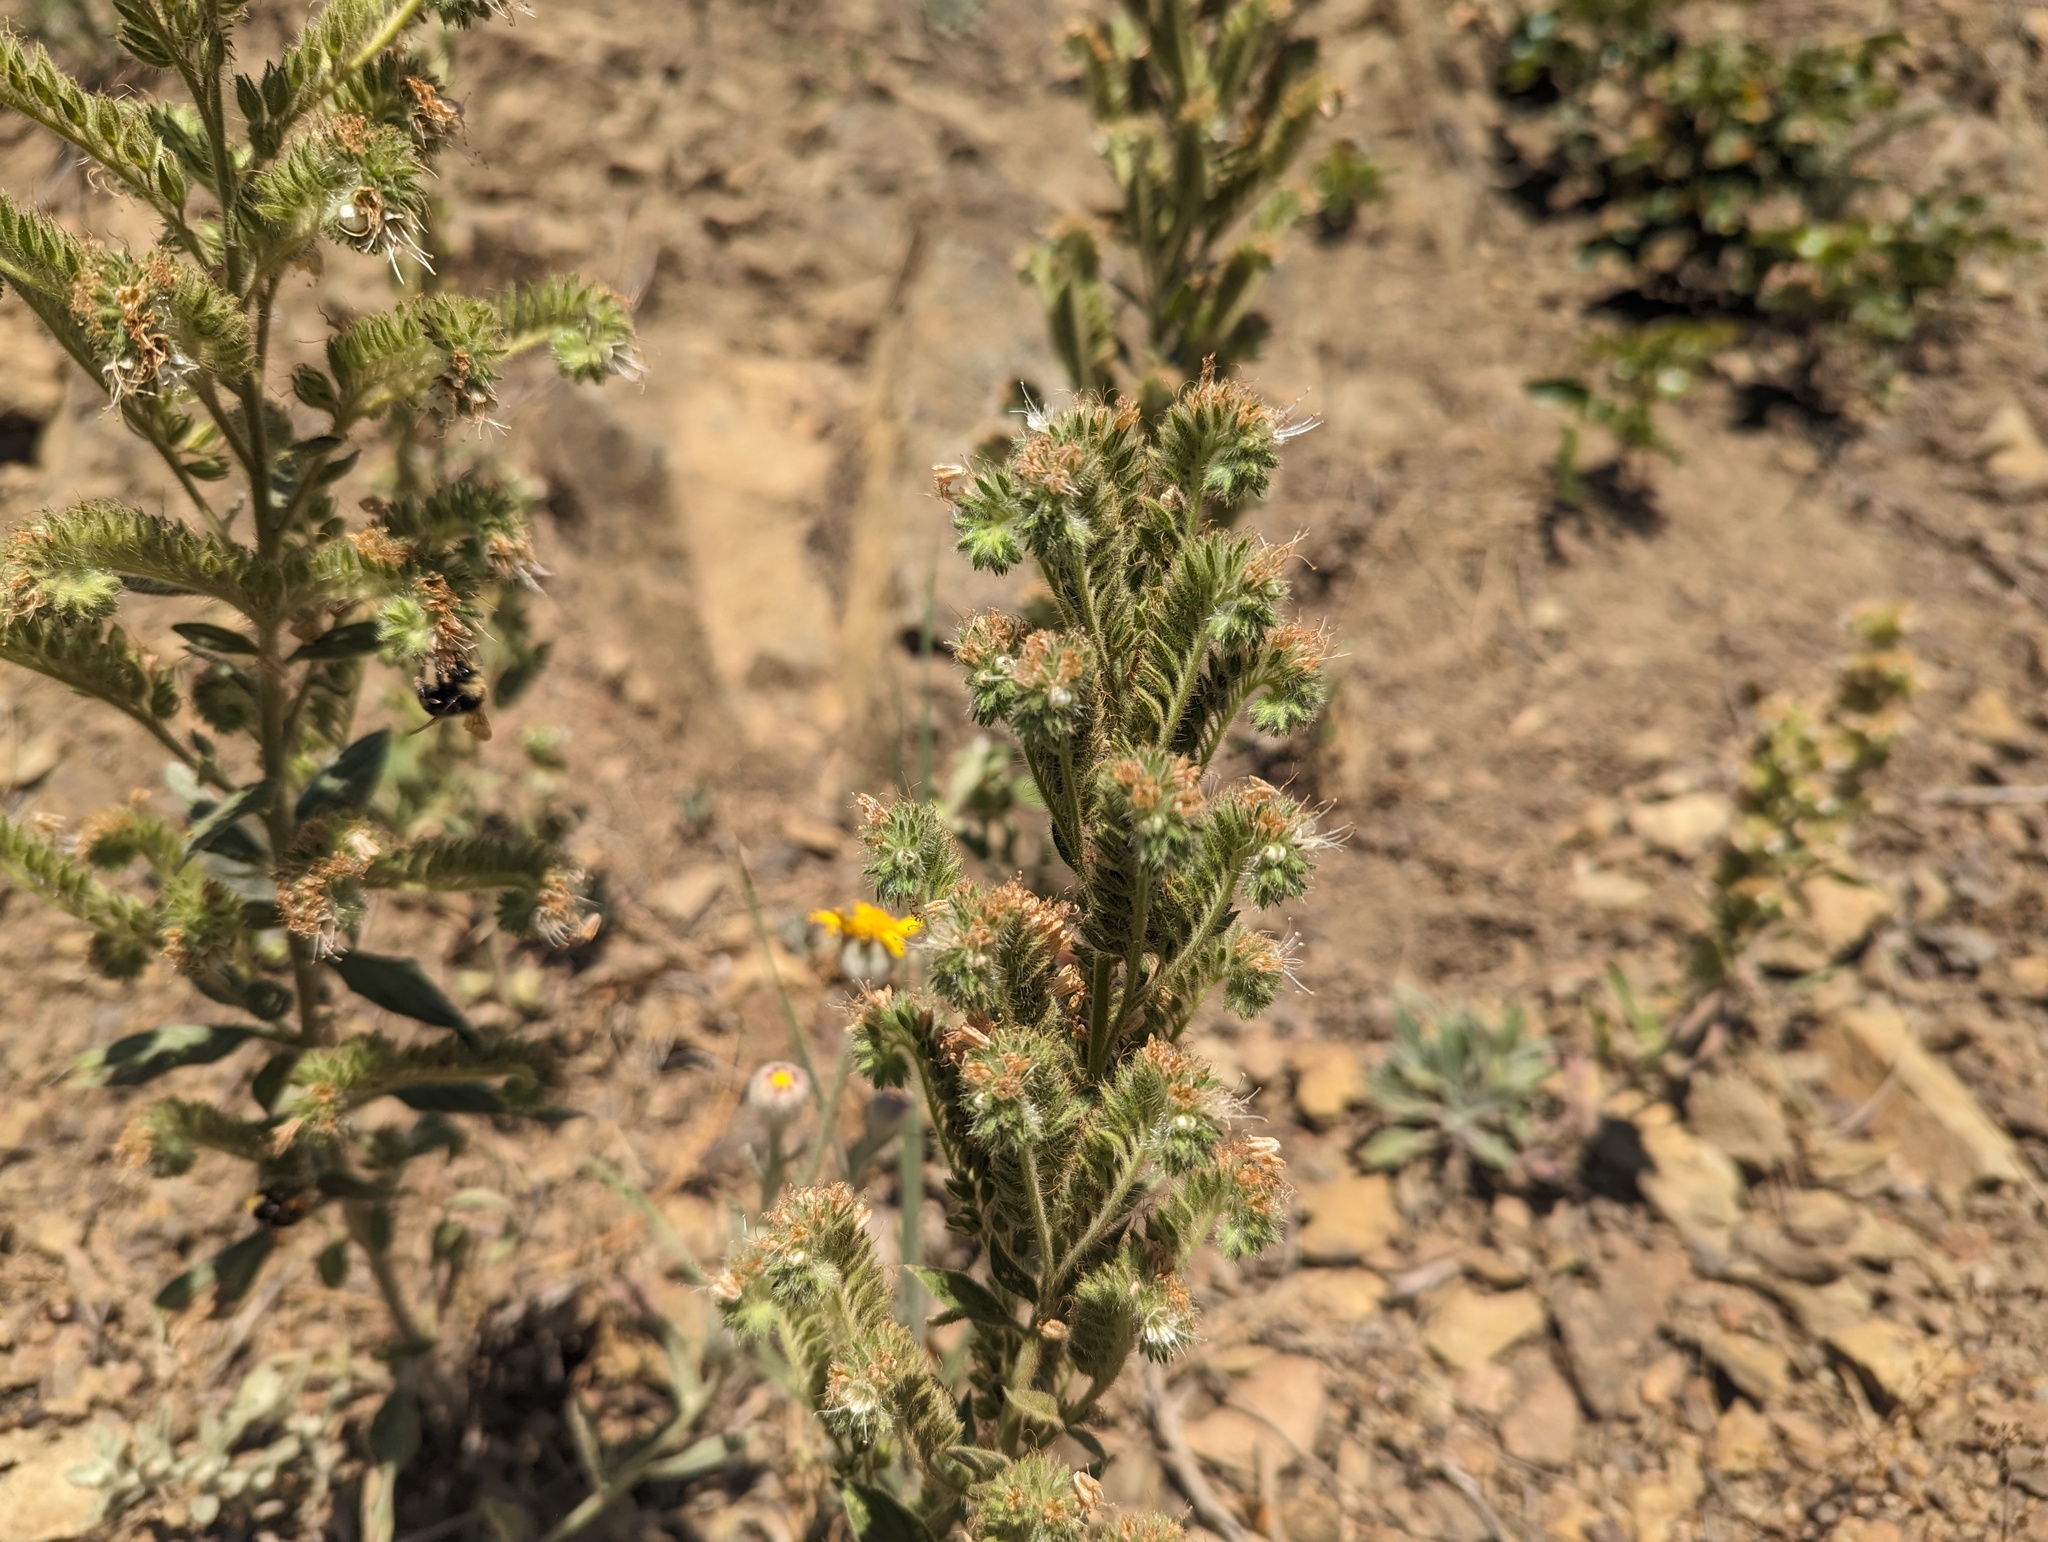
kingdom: Plantae
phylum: Tracheophyta
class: Magnoliopsida
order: Boraginales
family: Hydrophyllaceae
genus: Phacelia
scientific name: Phacelia heterophylla
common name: Variable-leaved phacelia
